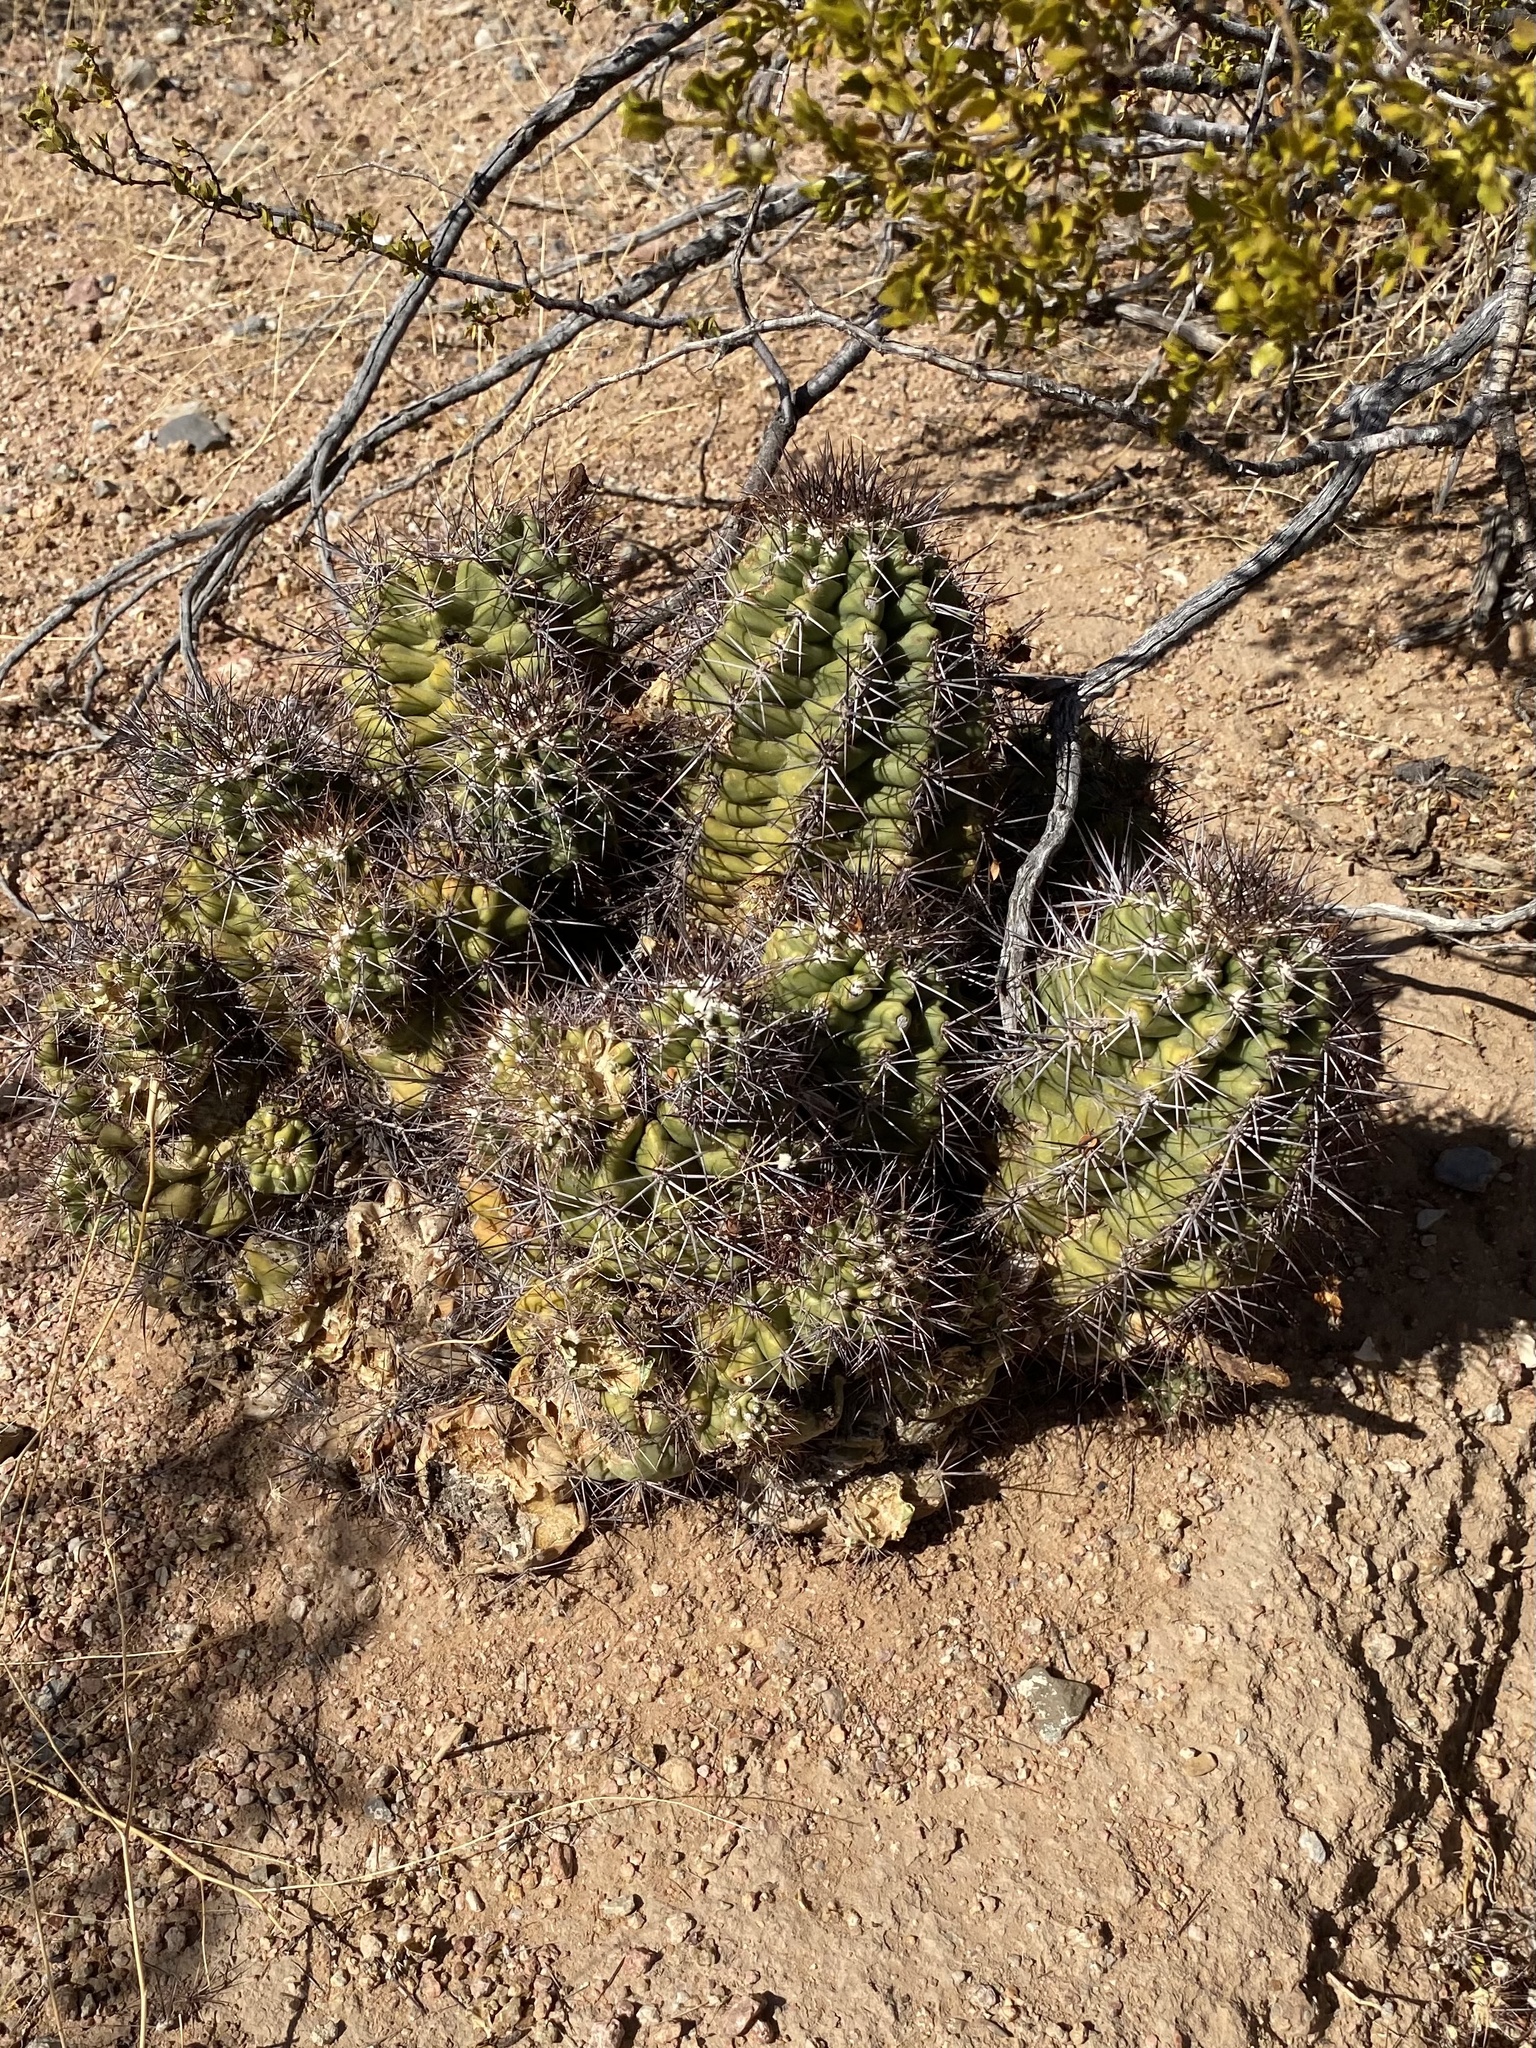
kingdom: Plantae
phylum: Tracheophyta
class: Magnoliopsida
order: Caryophyllales
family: Cactaceae
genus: Echinocereus
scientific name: Echinocereus coccineus
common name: Scarlet hedgehog cactus
